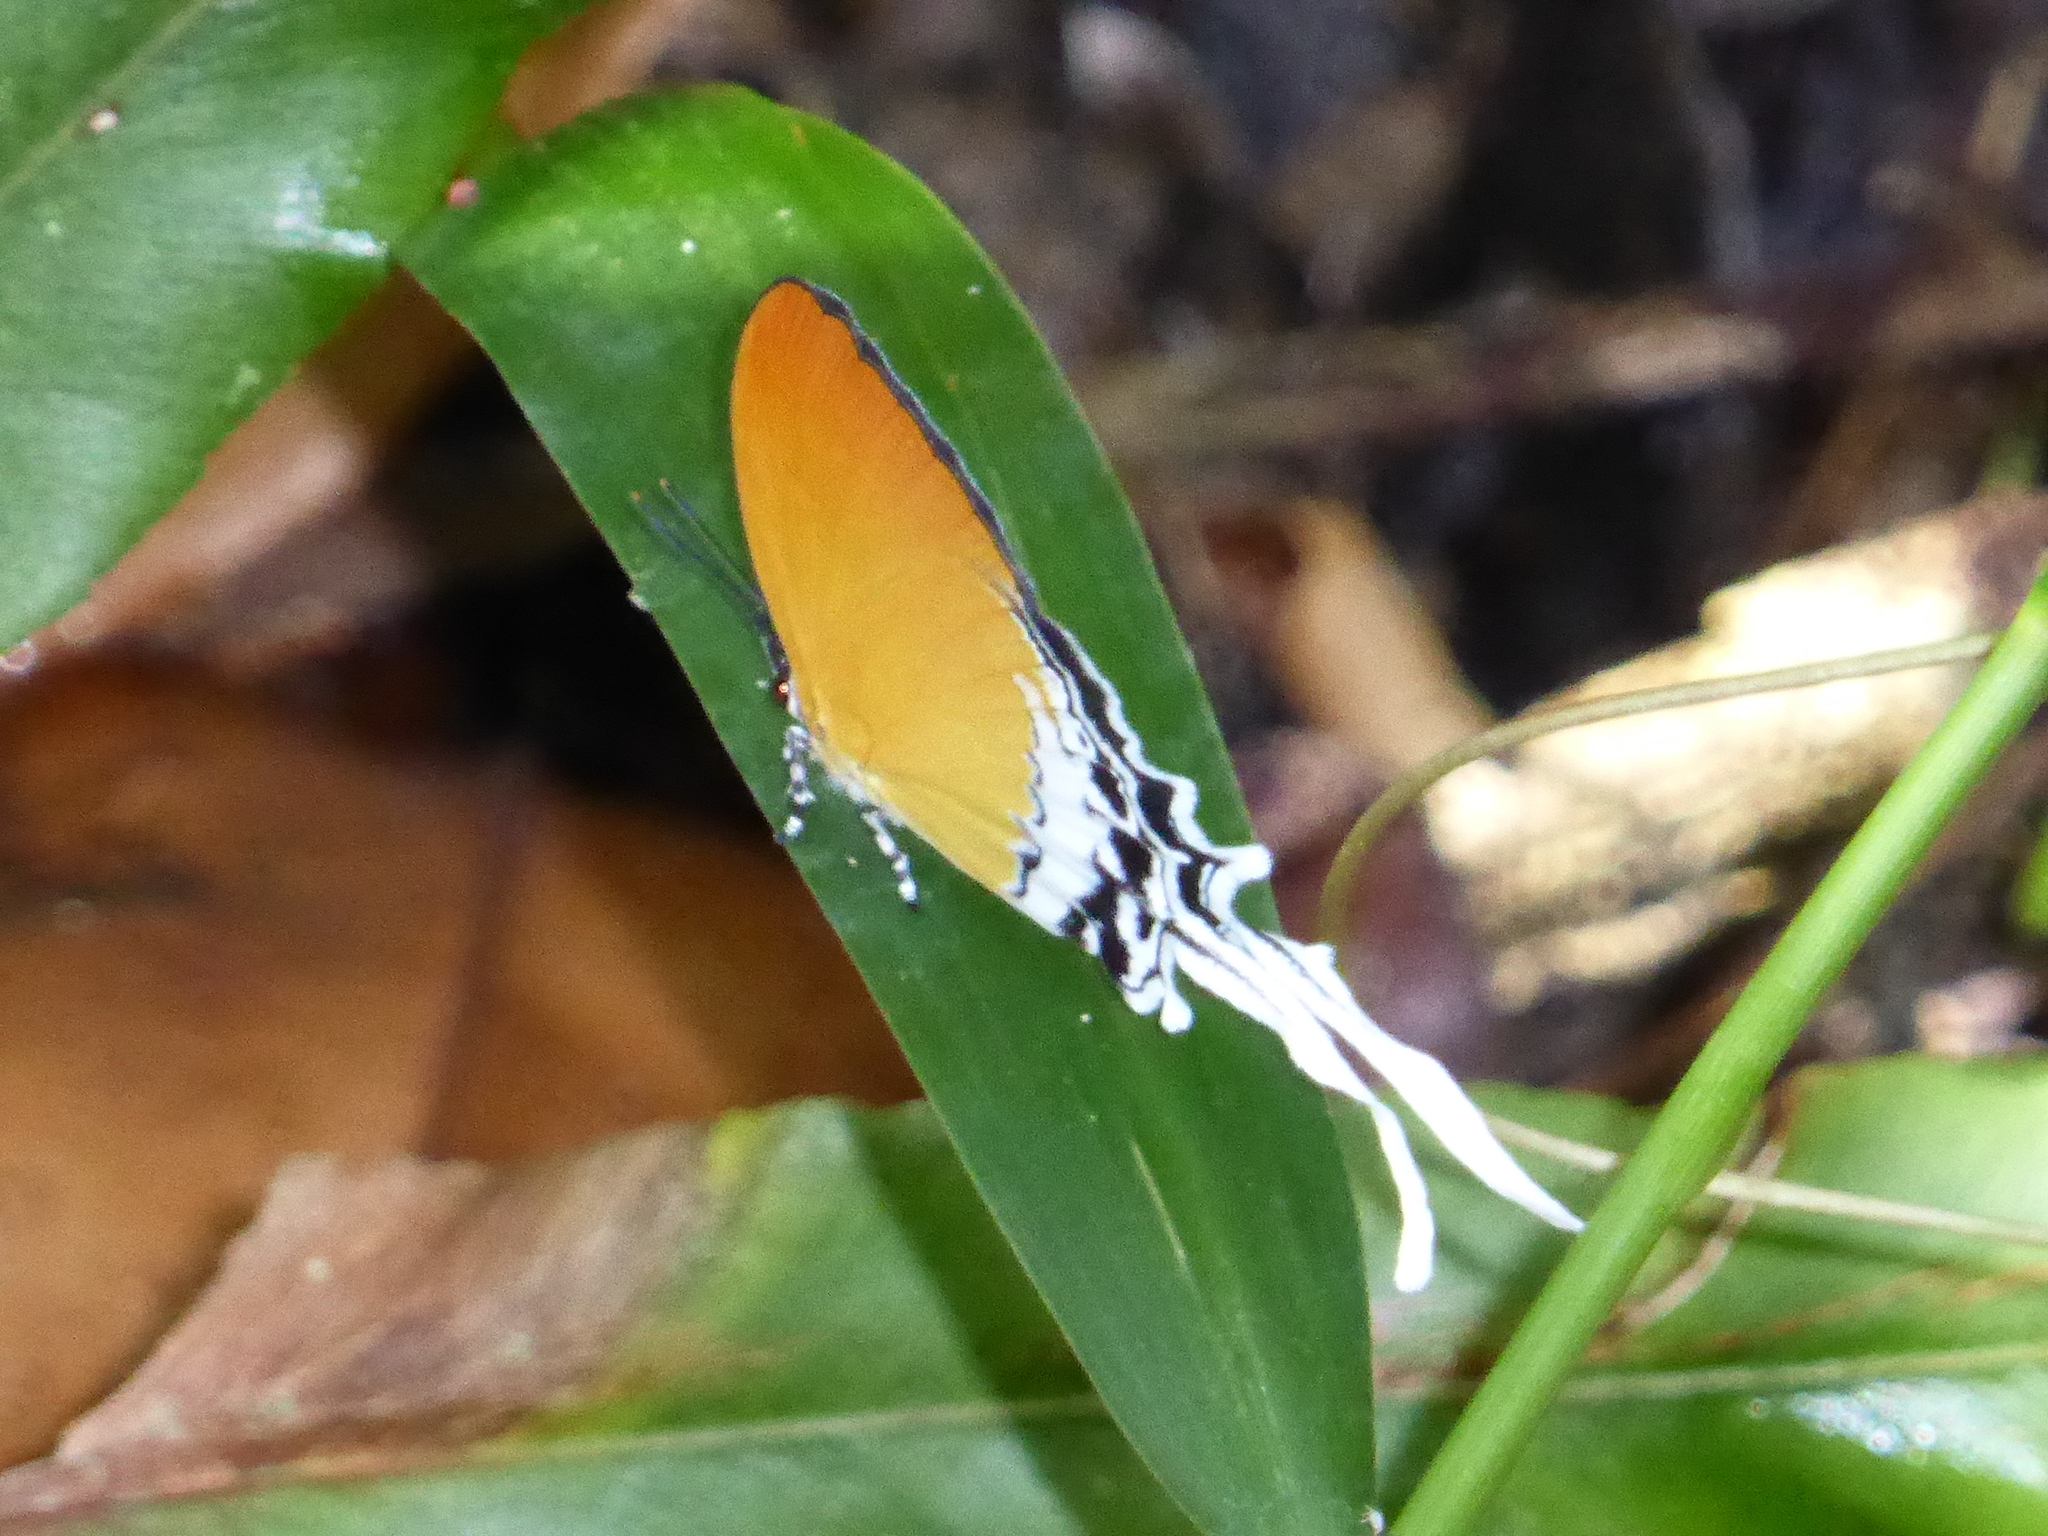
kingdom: Animalia
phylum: Arthropoda
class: Insecta
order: Lepidoptera
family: Lycaenidae
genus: Eooxylides
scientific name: Eooxylides tharis
